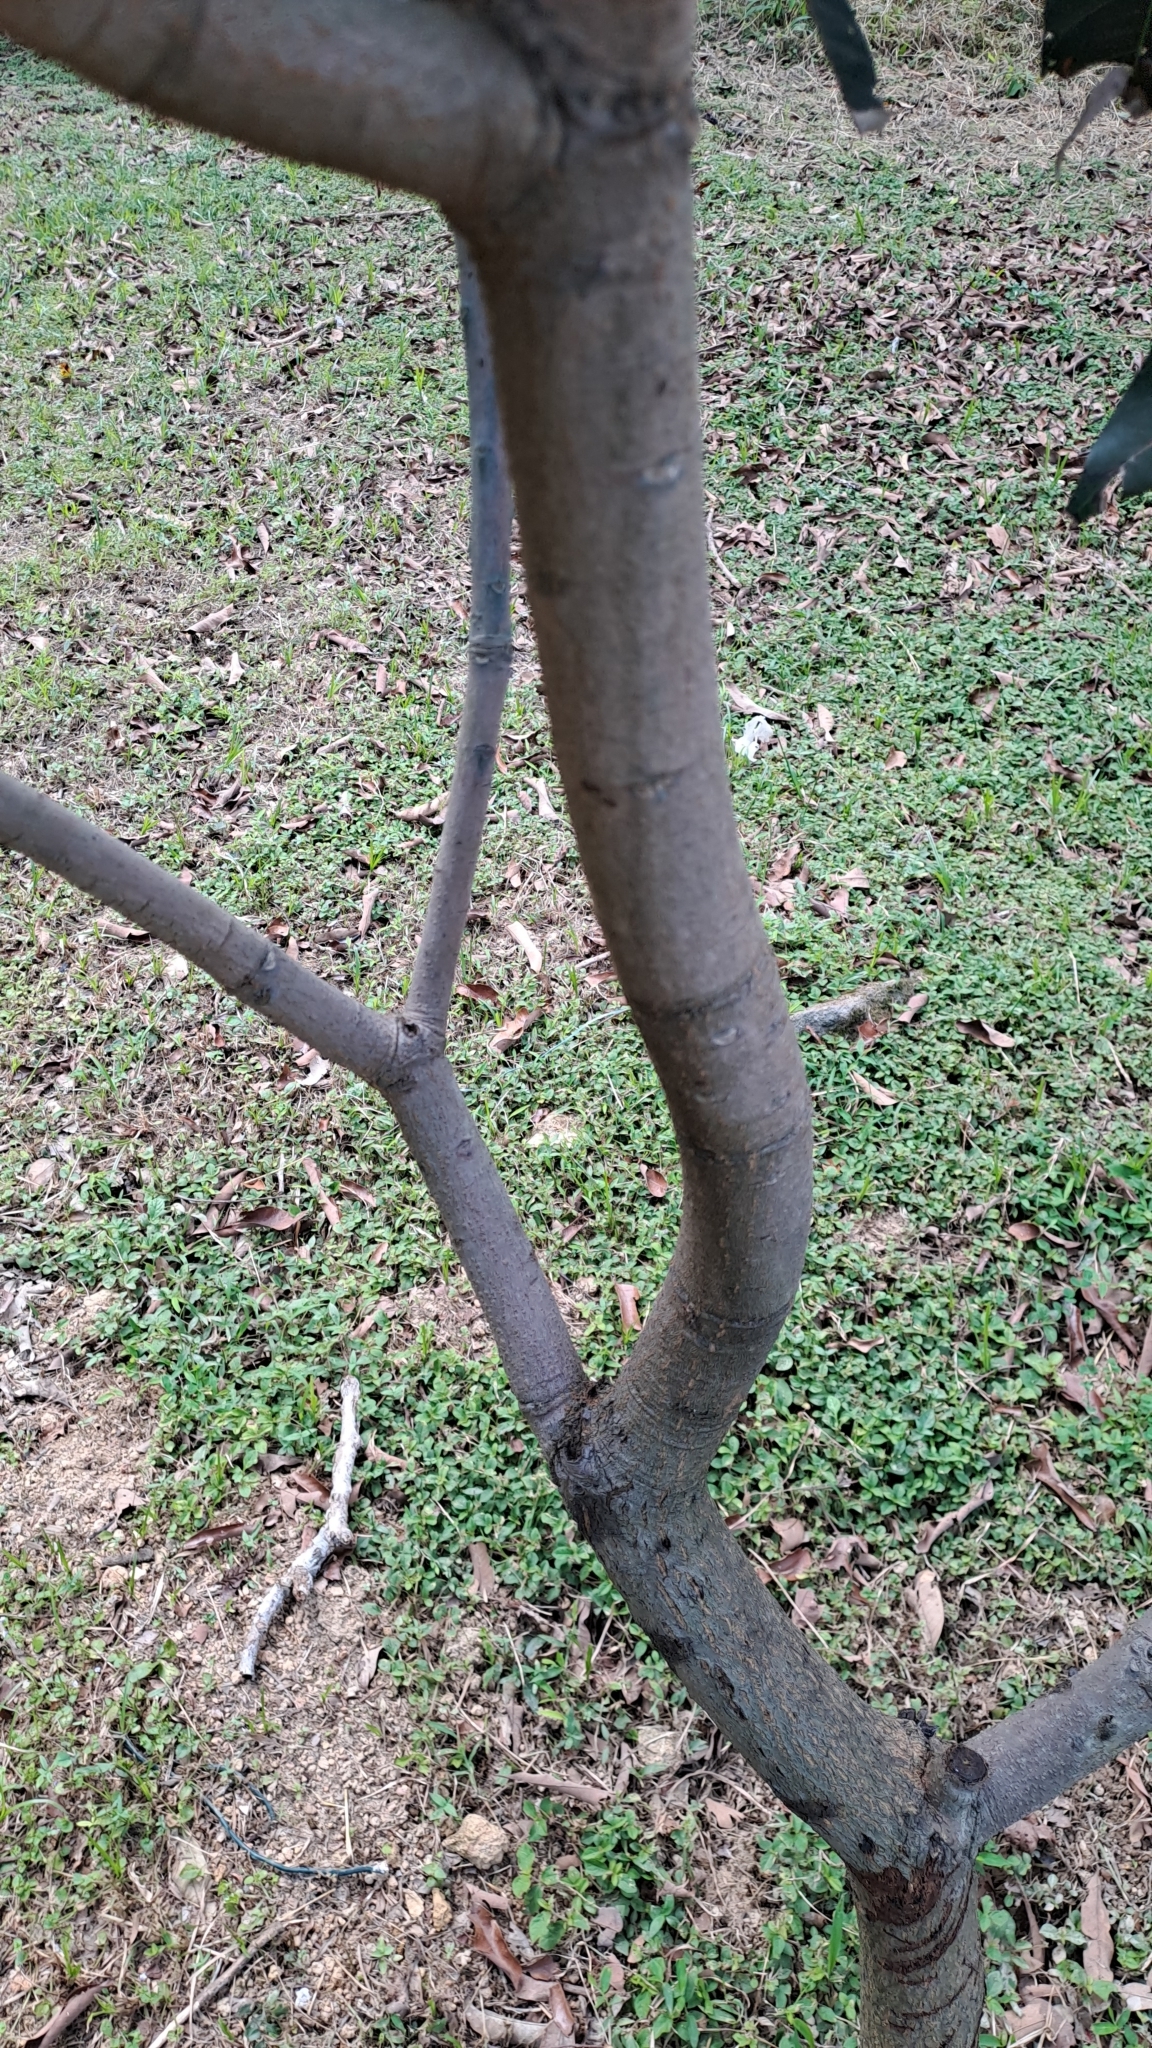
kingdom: Plantae
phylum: Tracheophyta
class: Magnoliopsida
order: Sapindales
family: Anacardiaceae
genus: Mangifera
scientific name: Mangifera indica
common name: Mango
